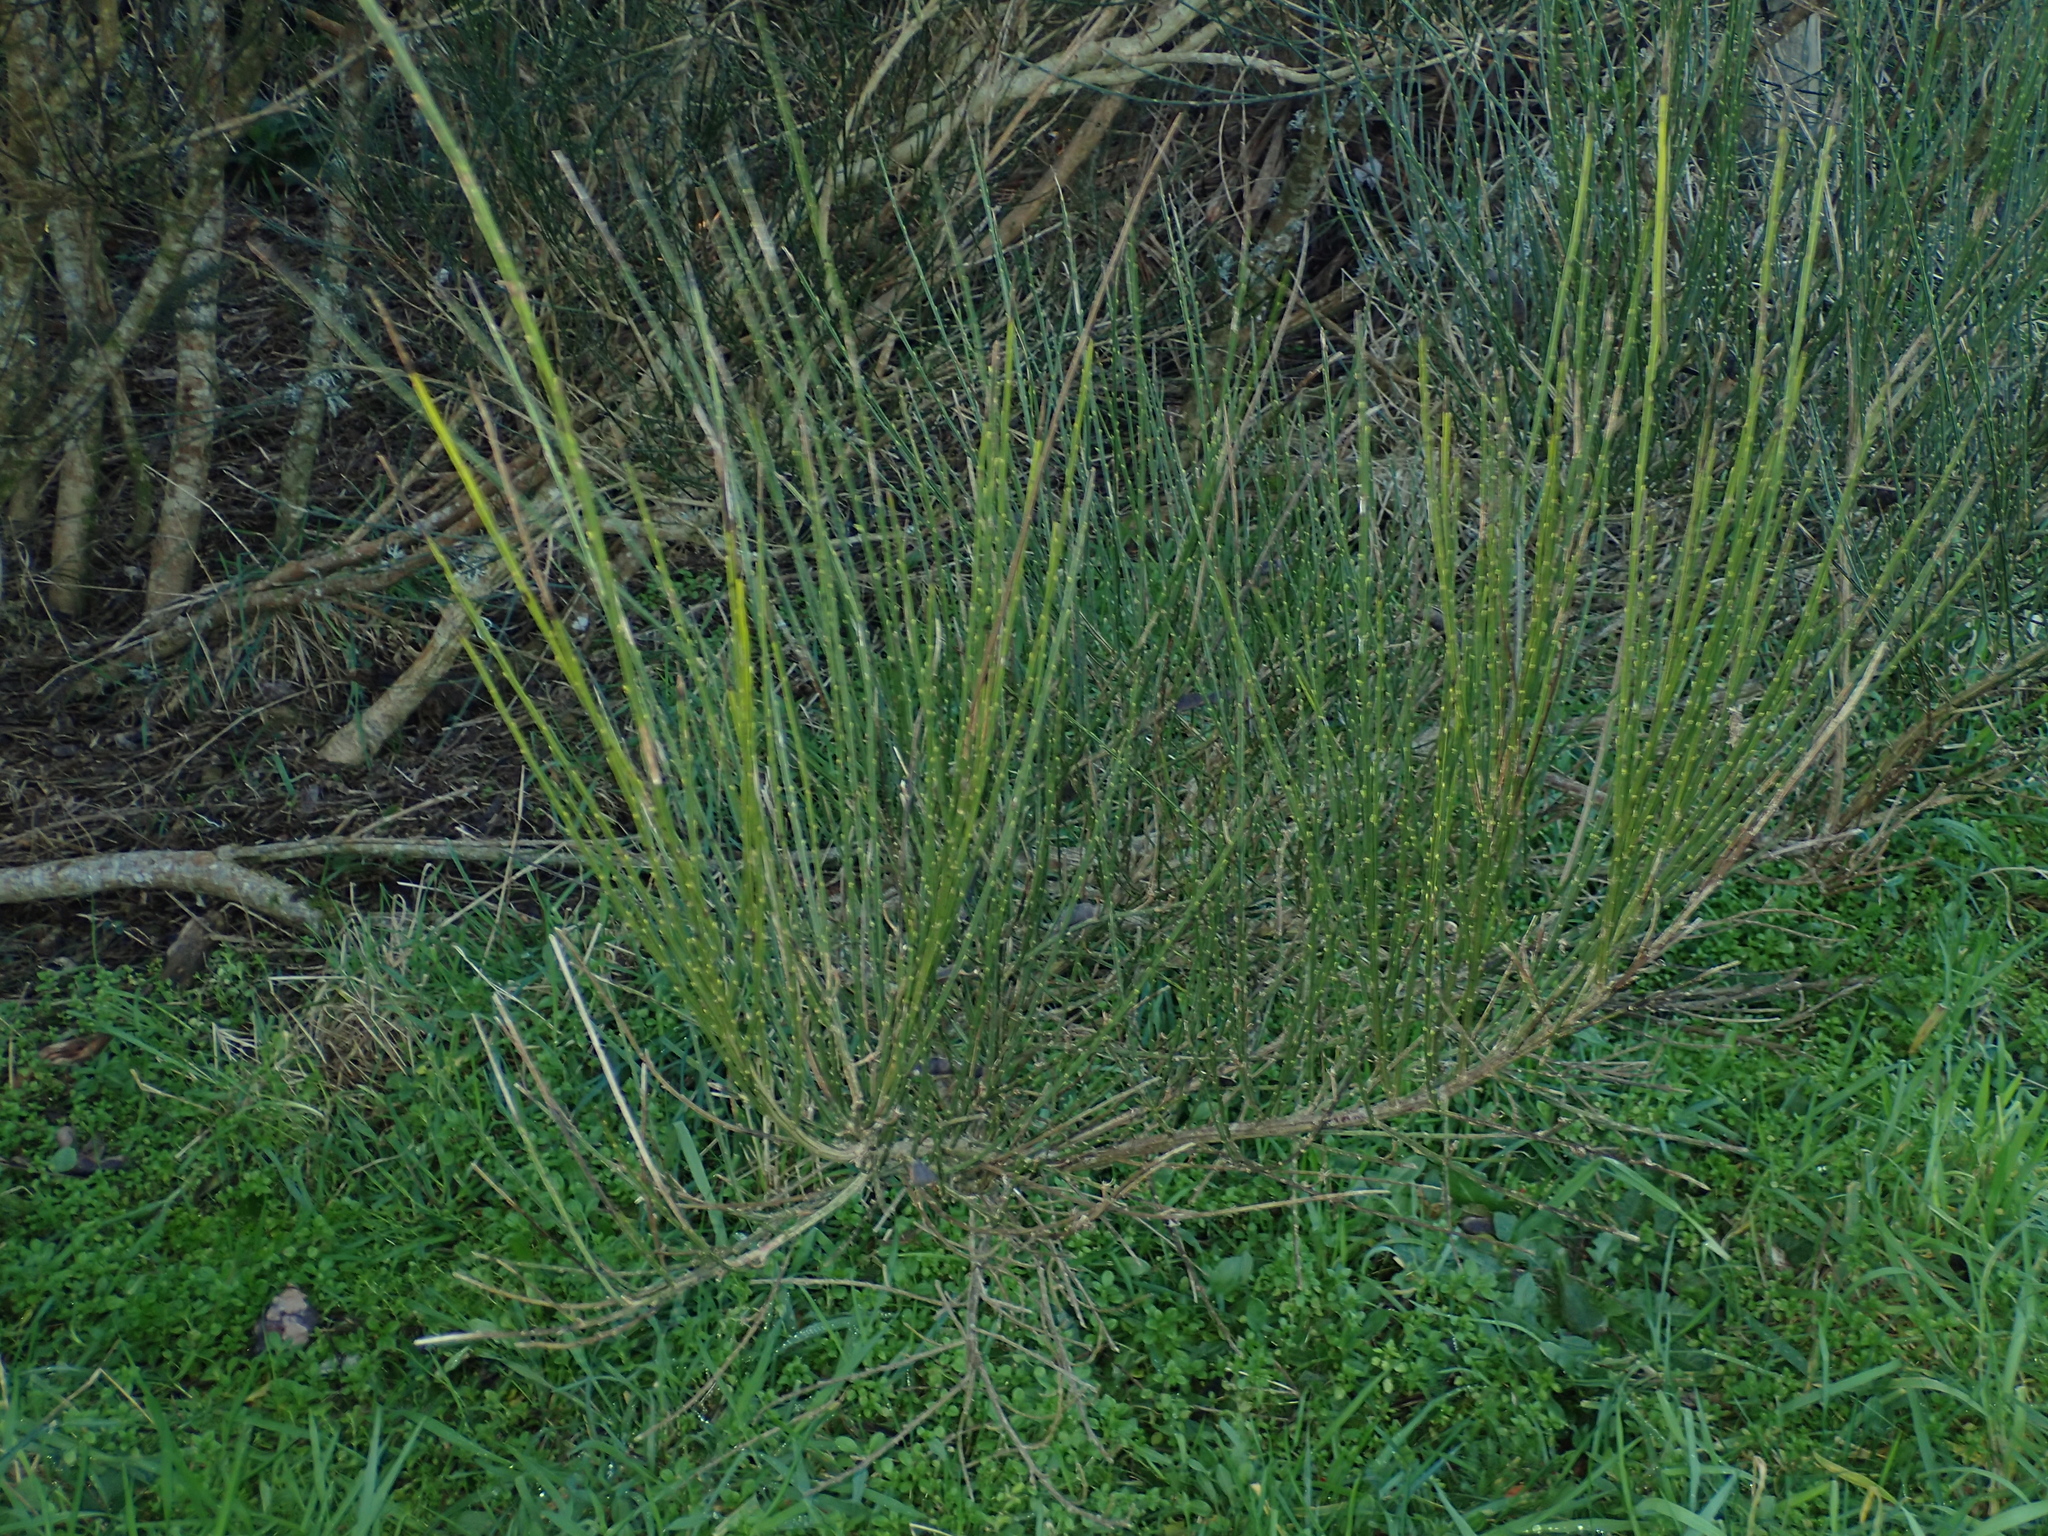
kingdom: Fungi
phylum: Basidiomycota
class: Agaricomycetes
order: Agaricales
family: Physalacriaceae
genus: Flammulina
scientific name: Flammulina velutipes
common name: Velvet shank
